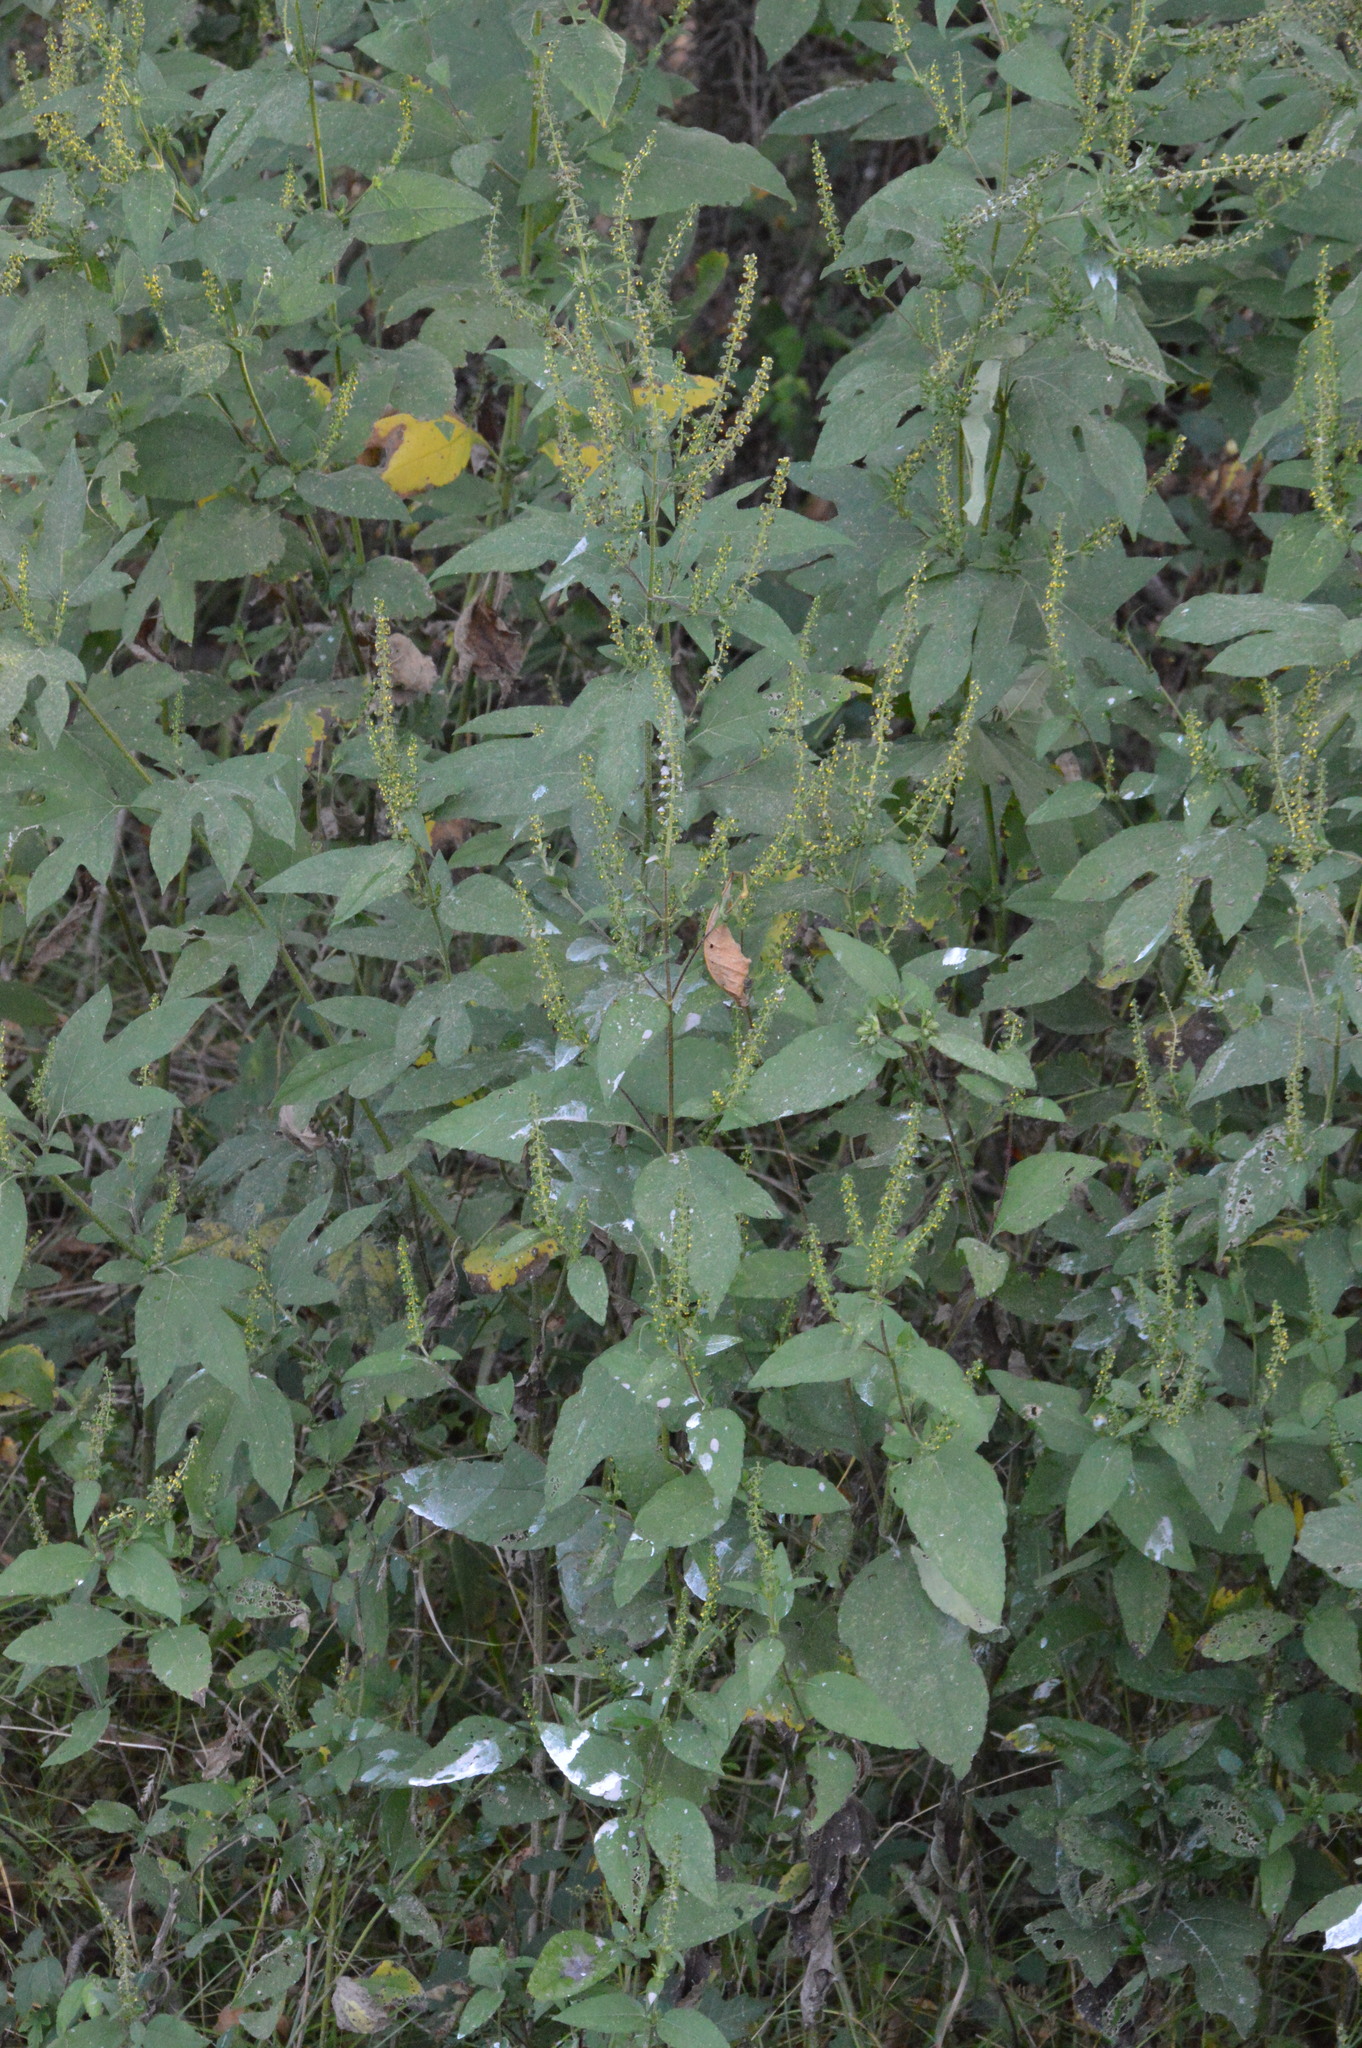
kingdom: Plantae
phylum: Tracheophyta
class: Magnoliopsida
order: Asterales
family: Asteraceae
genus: Ambrosia
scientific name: Ambrosia trifida
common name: Giant ragweed
